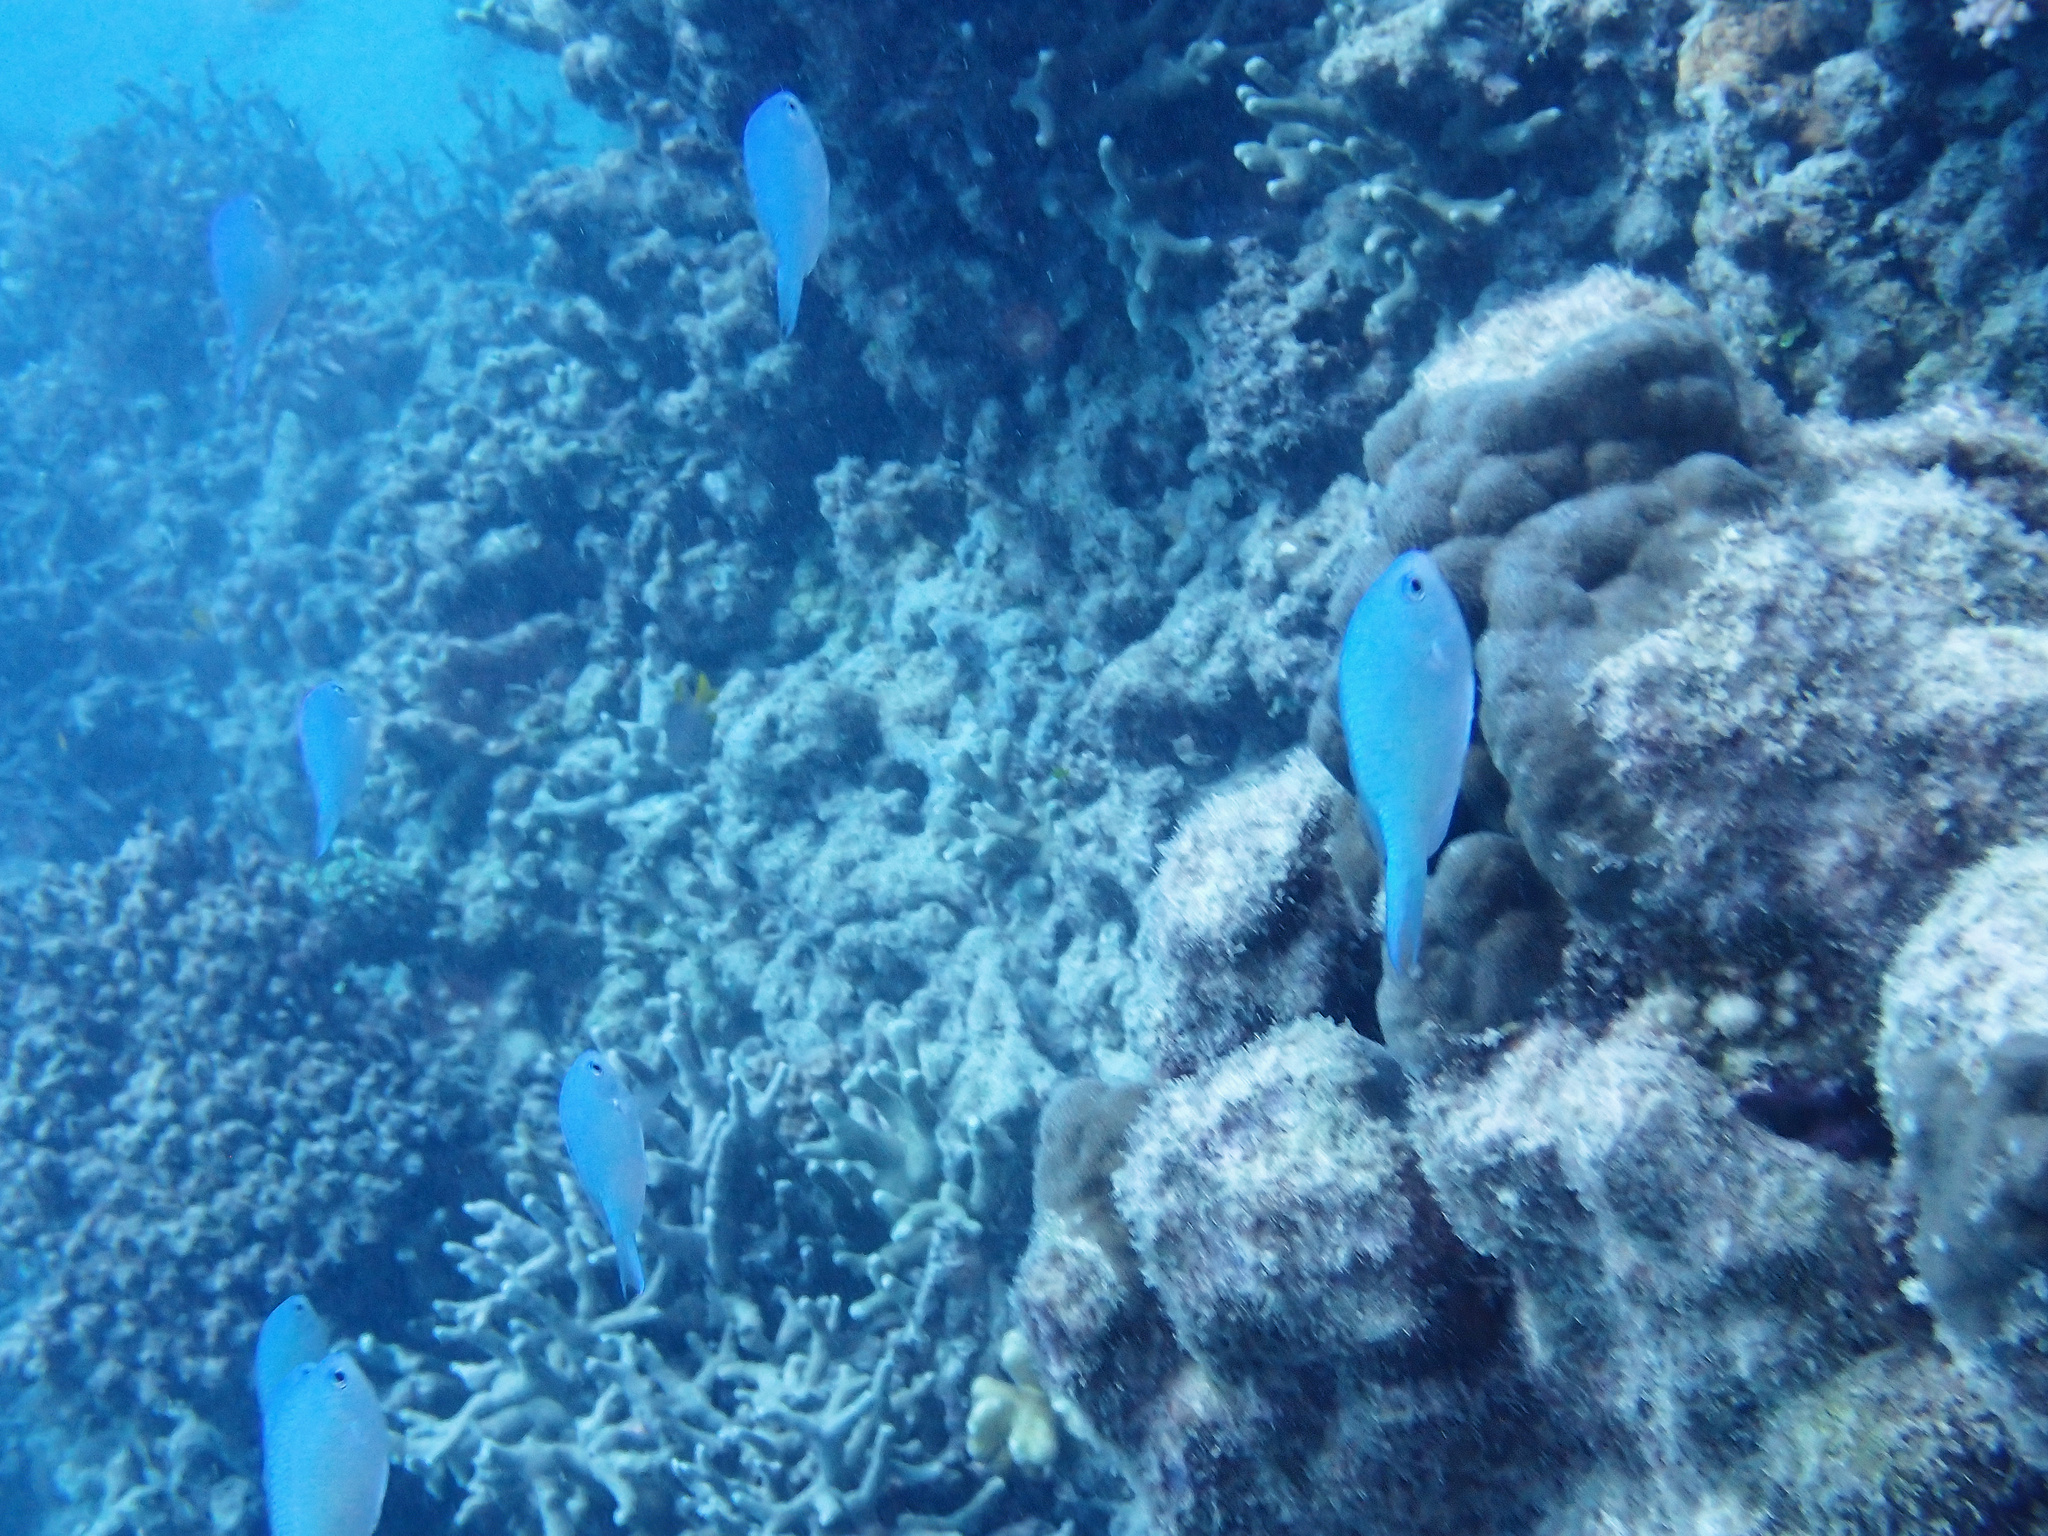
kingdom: Animalia
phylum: Chordata
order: Perciformes
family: Pomacentridae
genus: Chromis
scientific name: Chromis viridis
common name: Blue-green chromis
